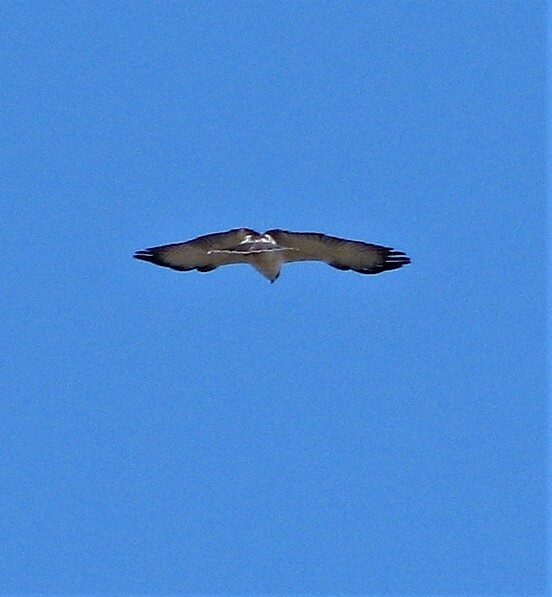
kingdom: Animalia
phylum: Chordata
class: Aves
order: Accipitriformes
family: Accipitridae
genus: Buteo
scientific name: Buteo polyosoma
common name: Variable hawk
